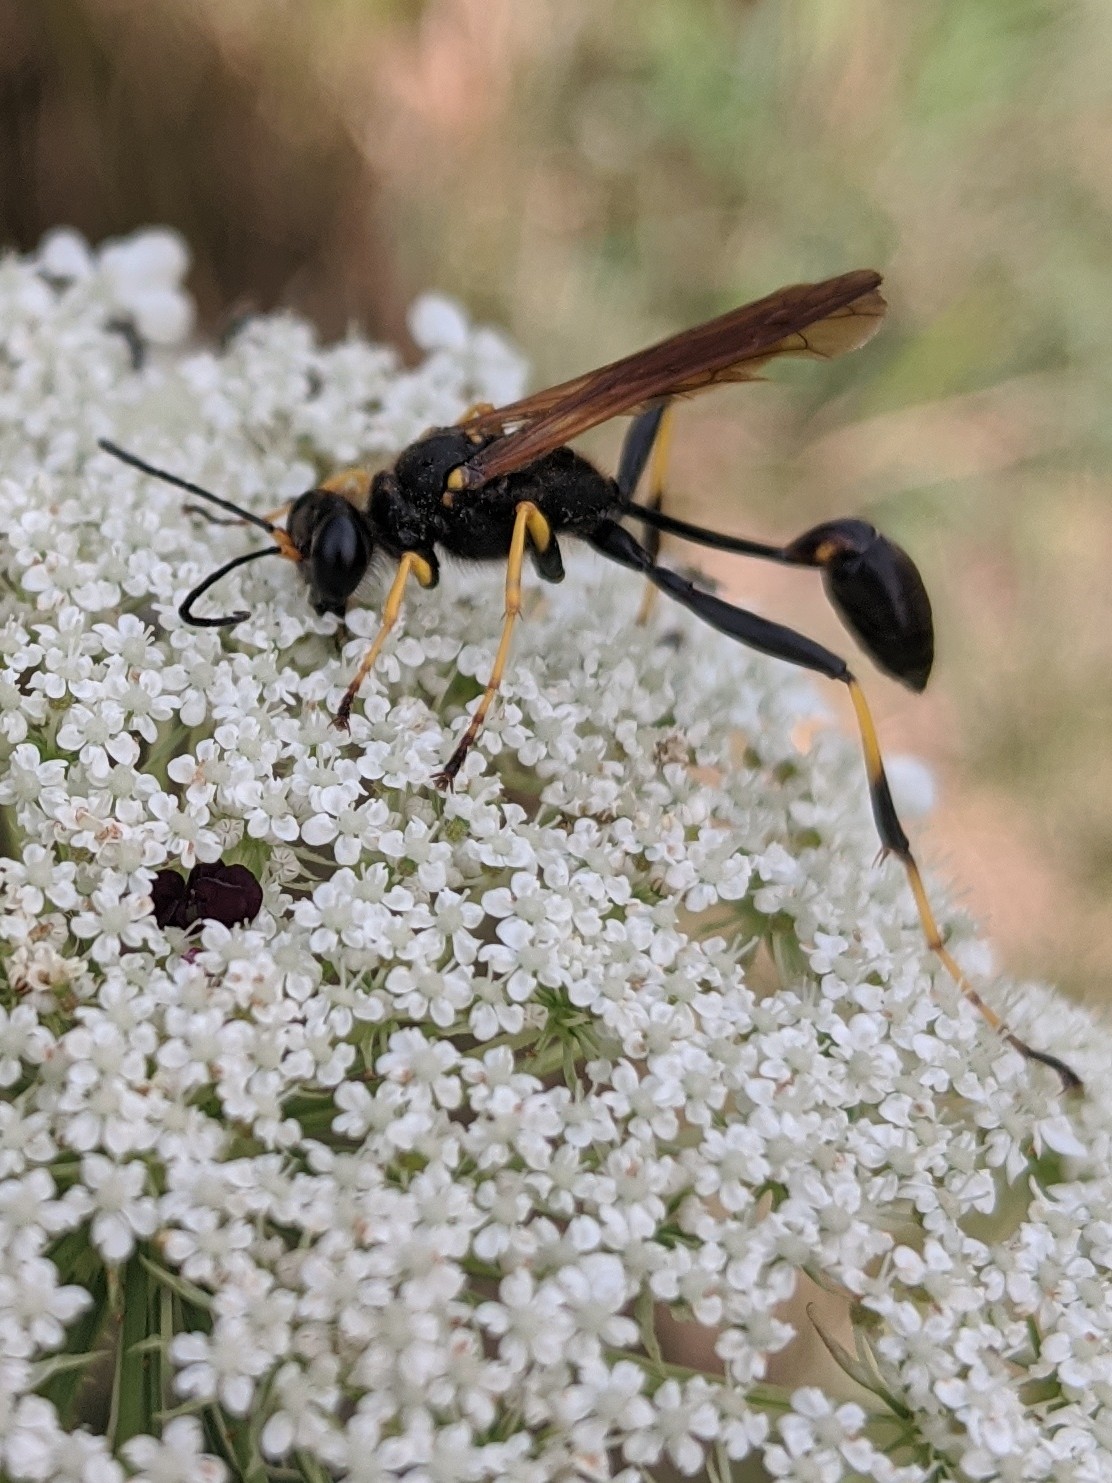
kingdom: Animalia
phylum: Arthropoda
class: Insecta
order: Hymenoptera
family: Sphecidae
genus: Sceliphron
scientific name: Sceliphron caementarium
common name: Mud dauber
